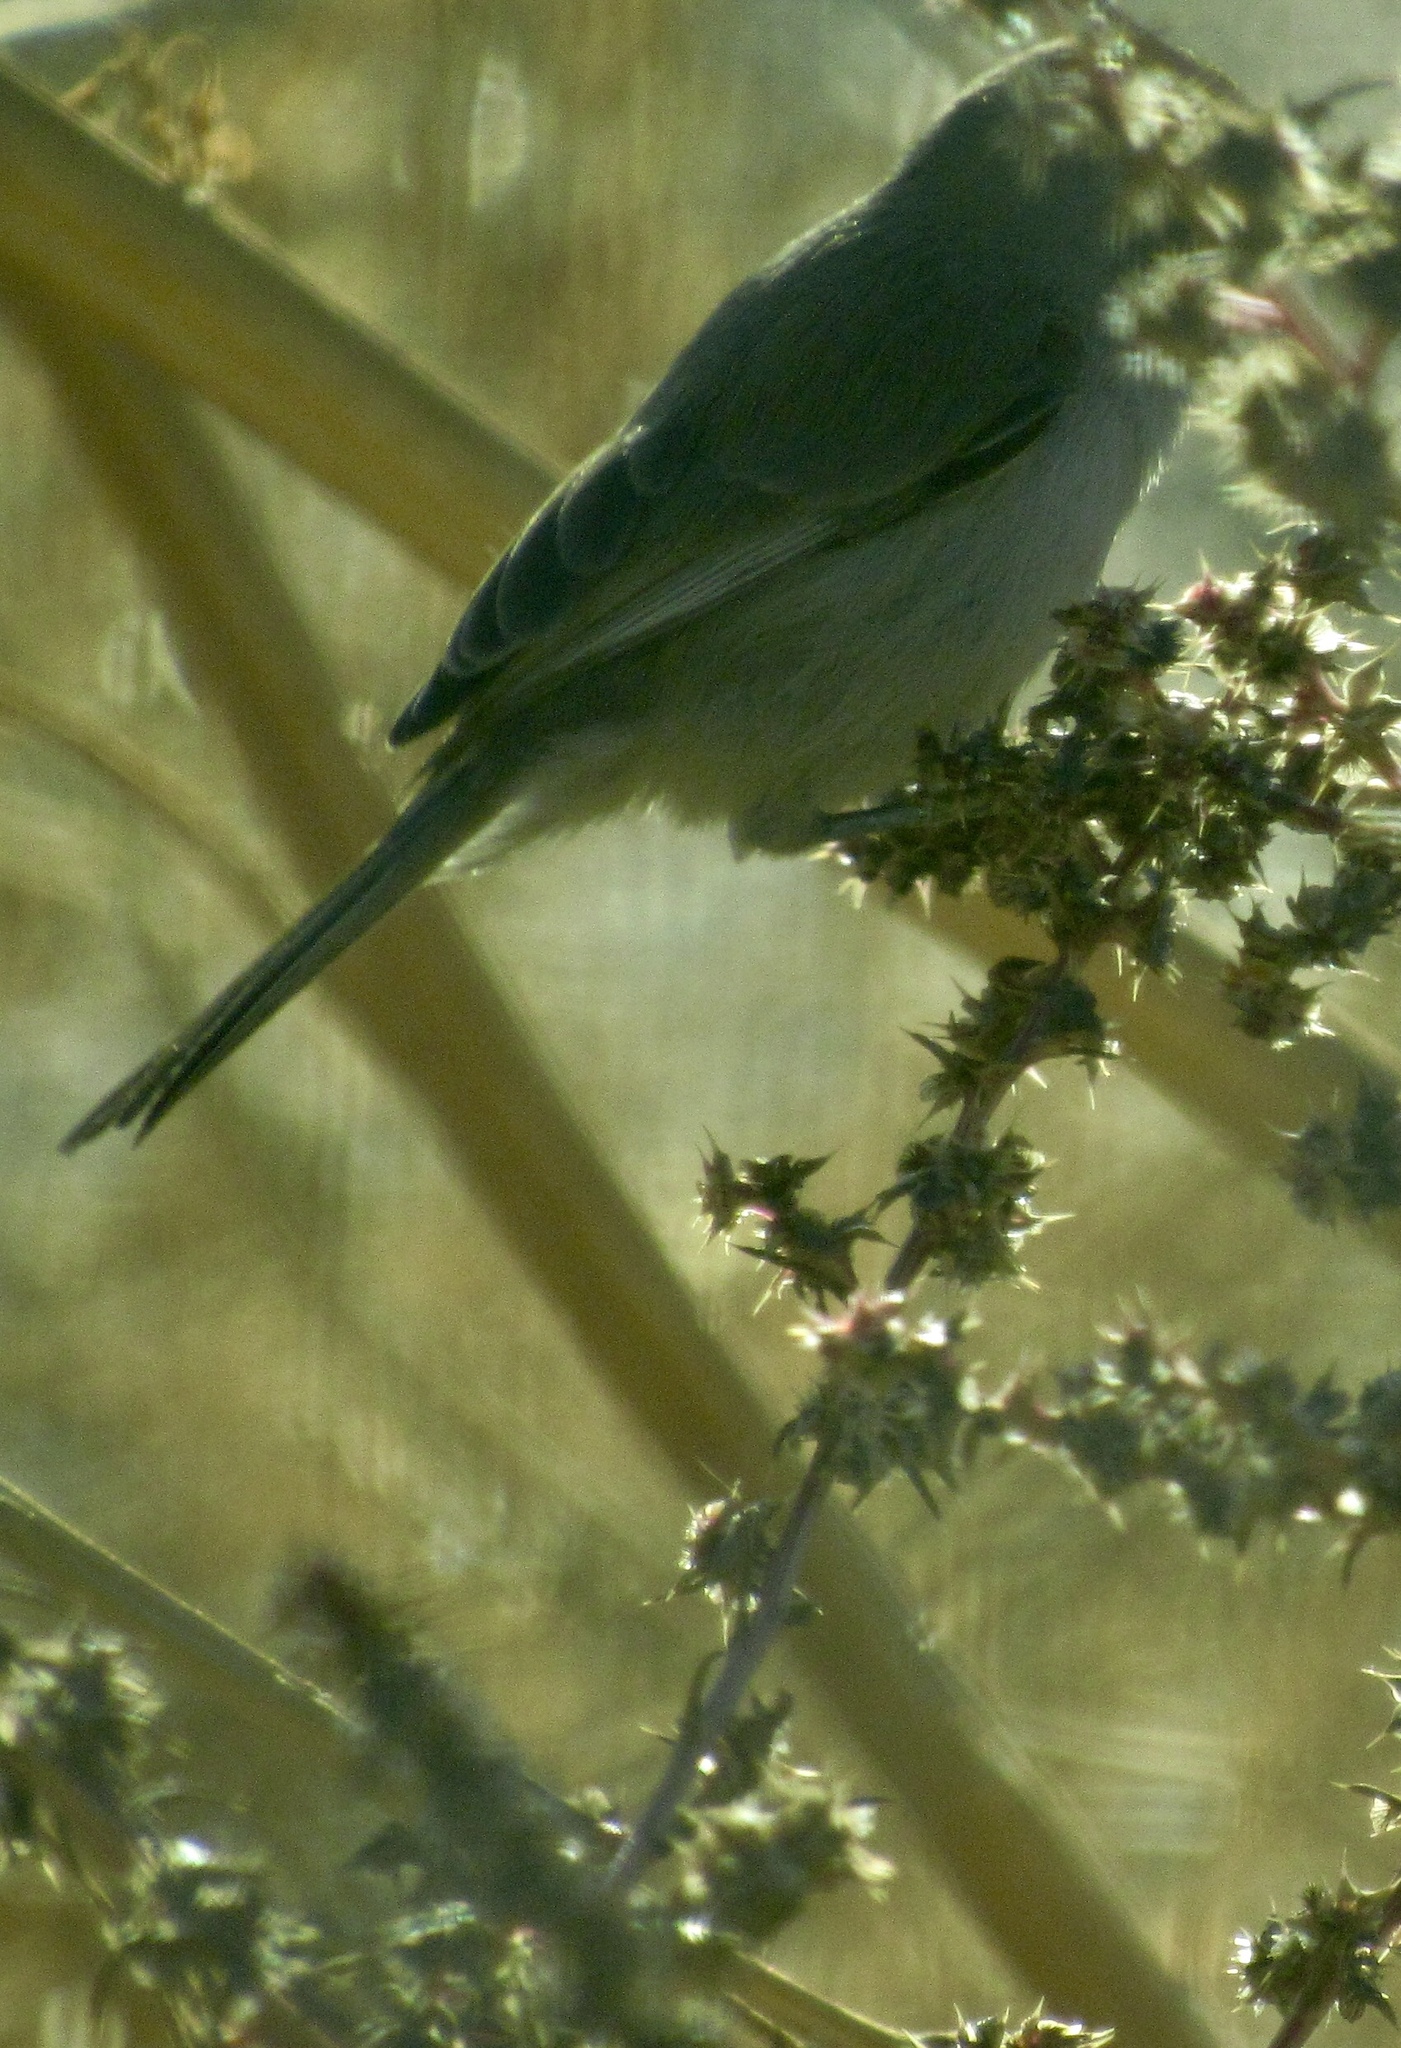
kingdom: Animalia
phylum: Chordata
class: Aves
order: Passeriformes
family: Remizidae
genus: Auriparus
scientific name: Auriparus flaviceps
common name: Verdin
